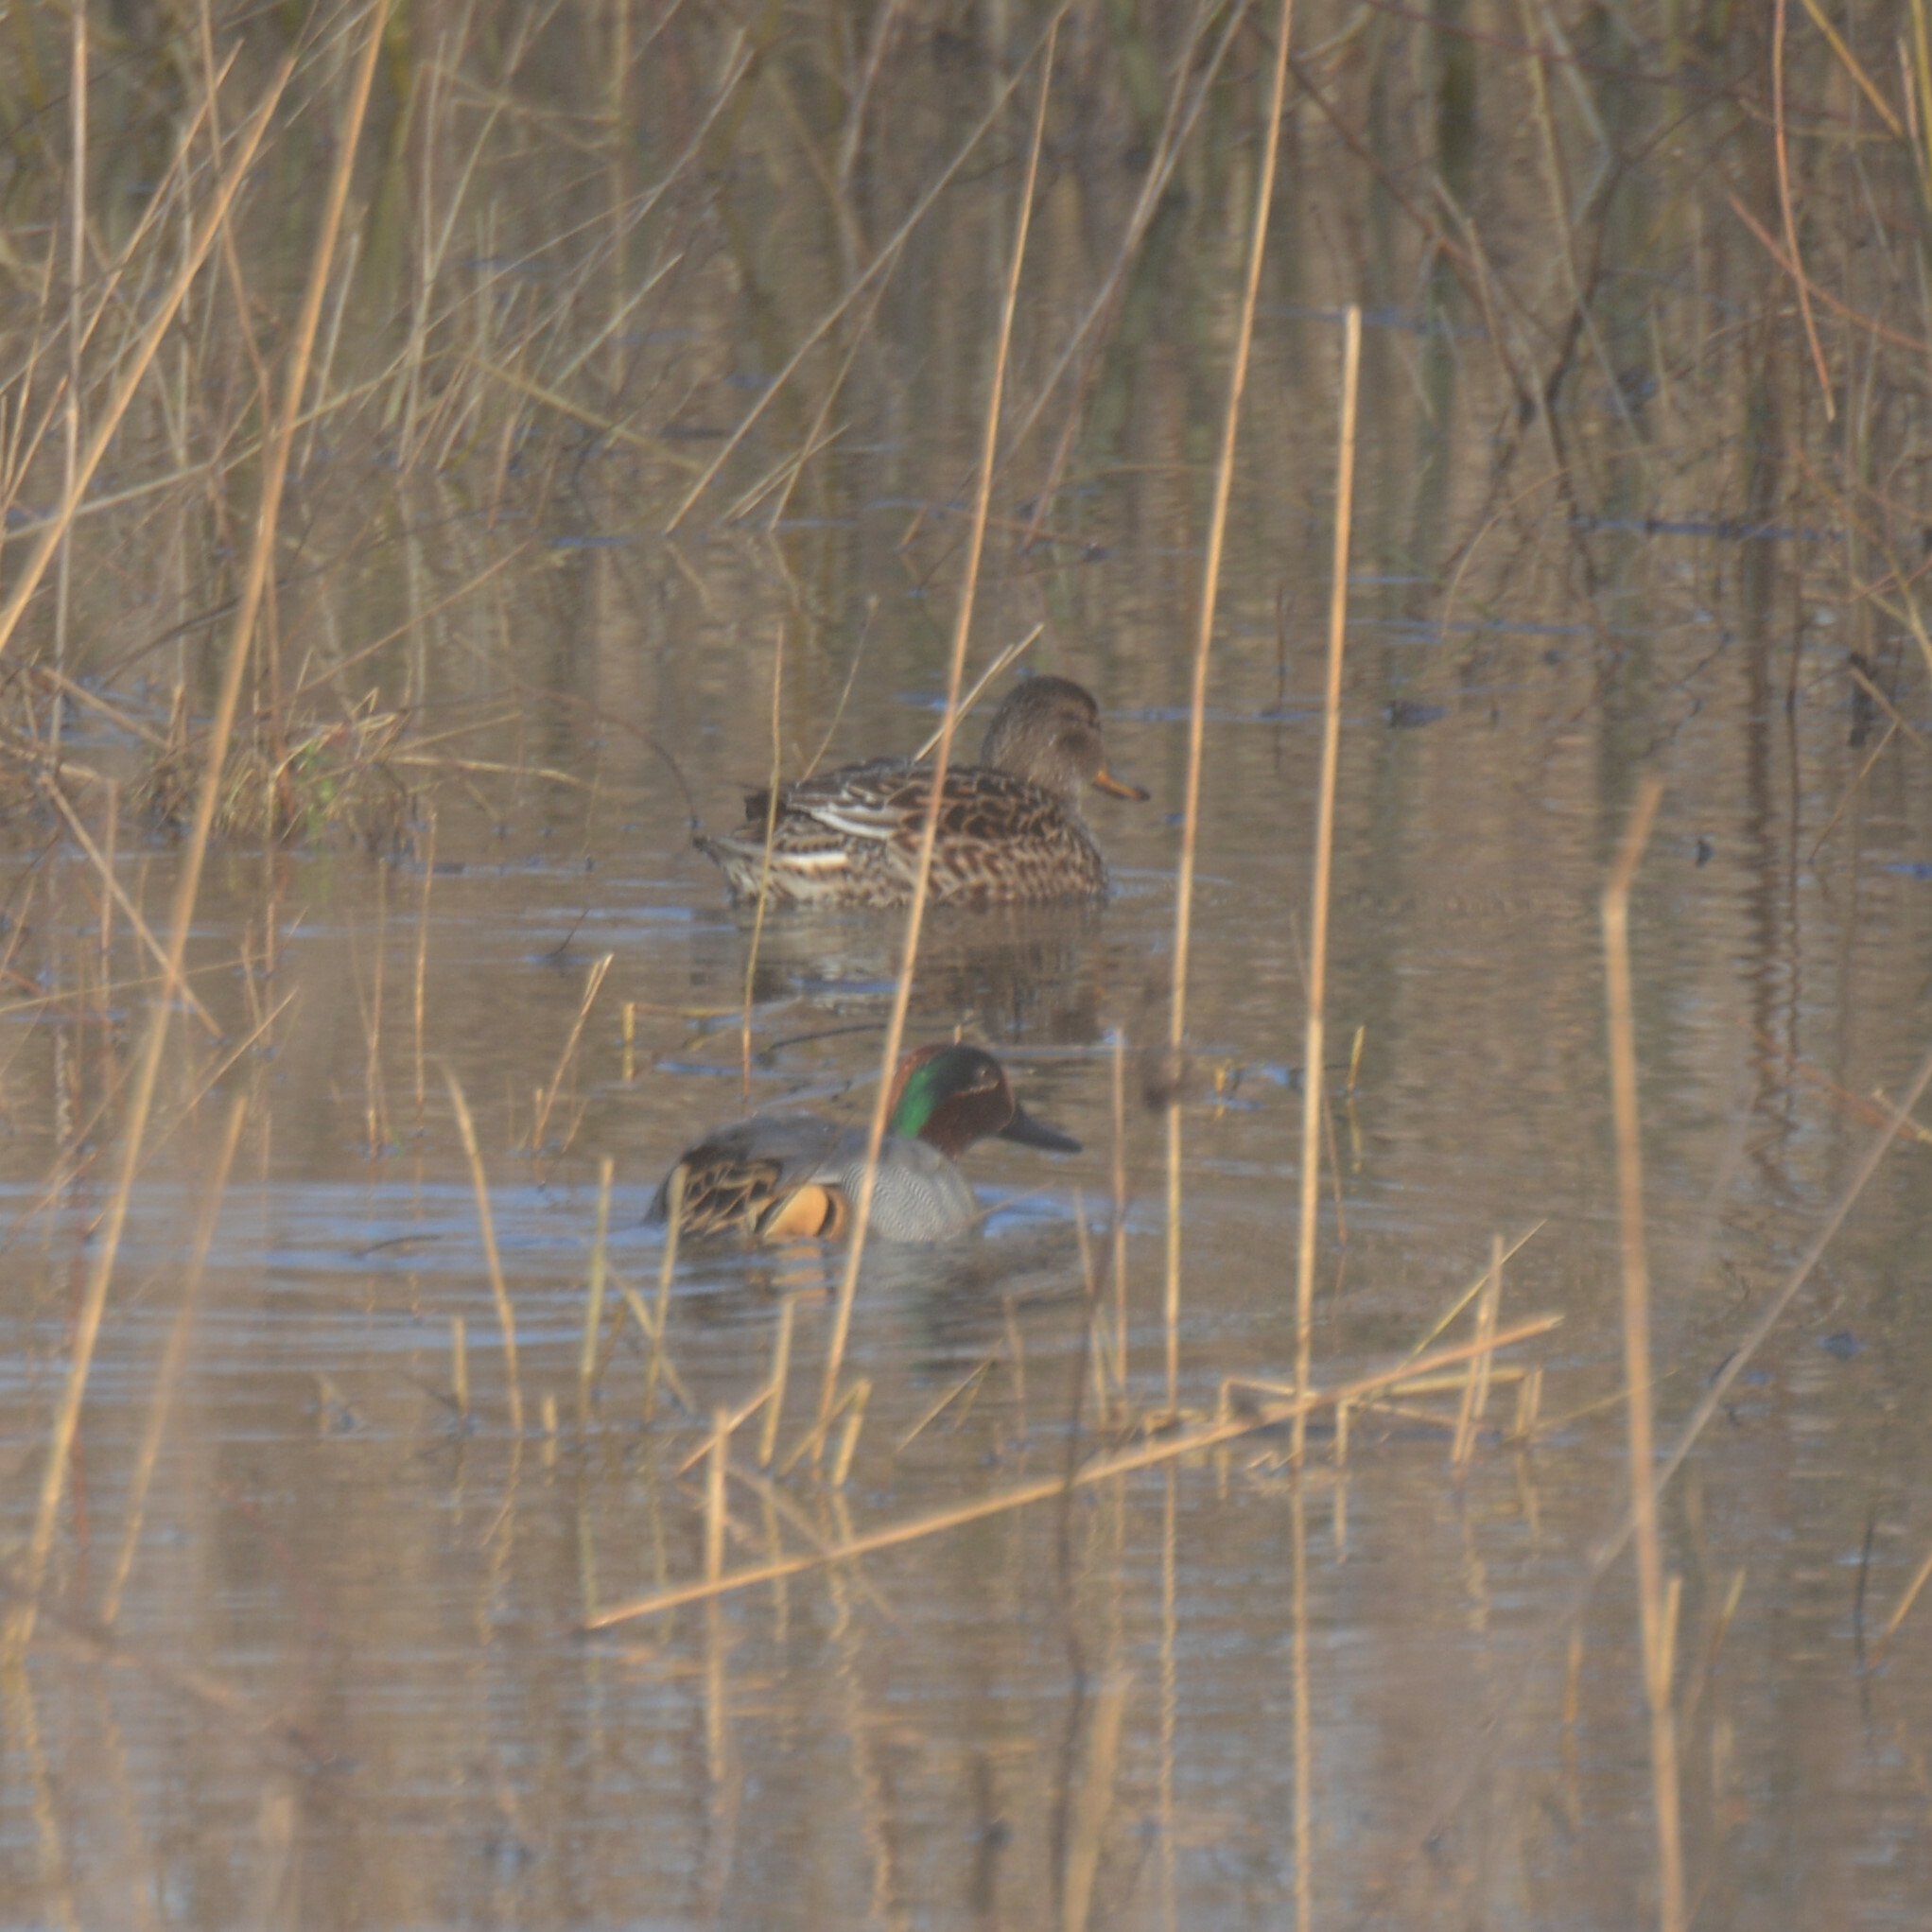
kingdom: Animalia
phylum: Chordata
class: Aves
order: Anseriformes
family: Anatidae
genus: Anas
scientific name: Anas crecca
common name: Eurasian teal
